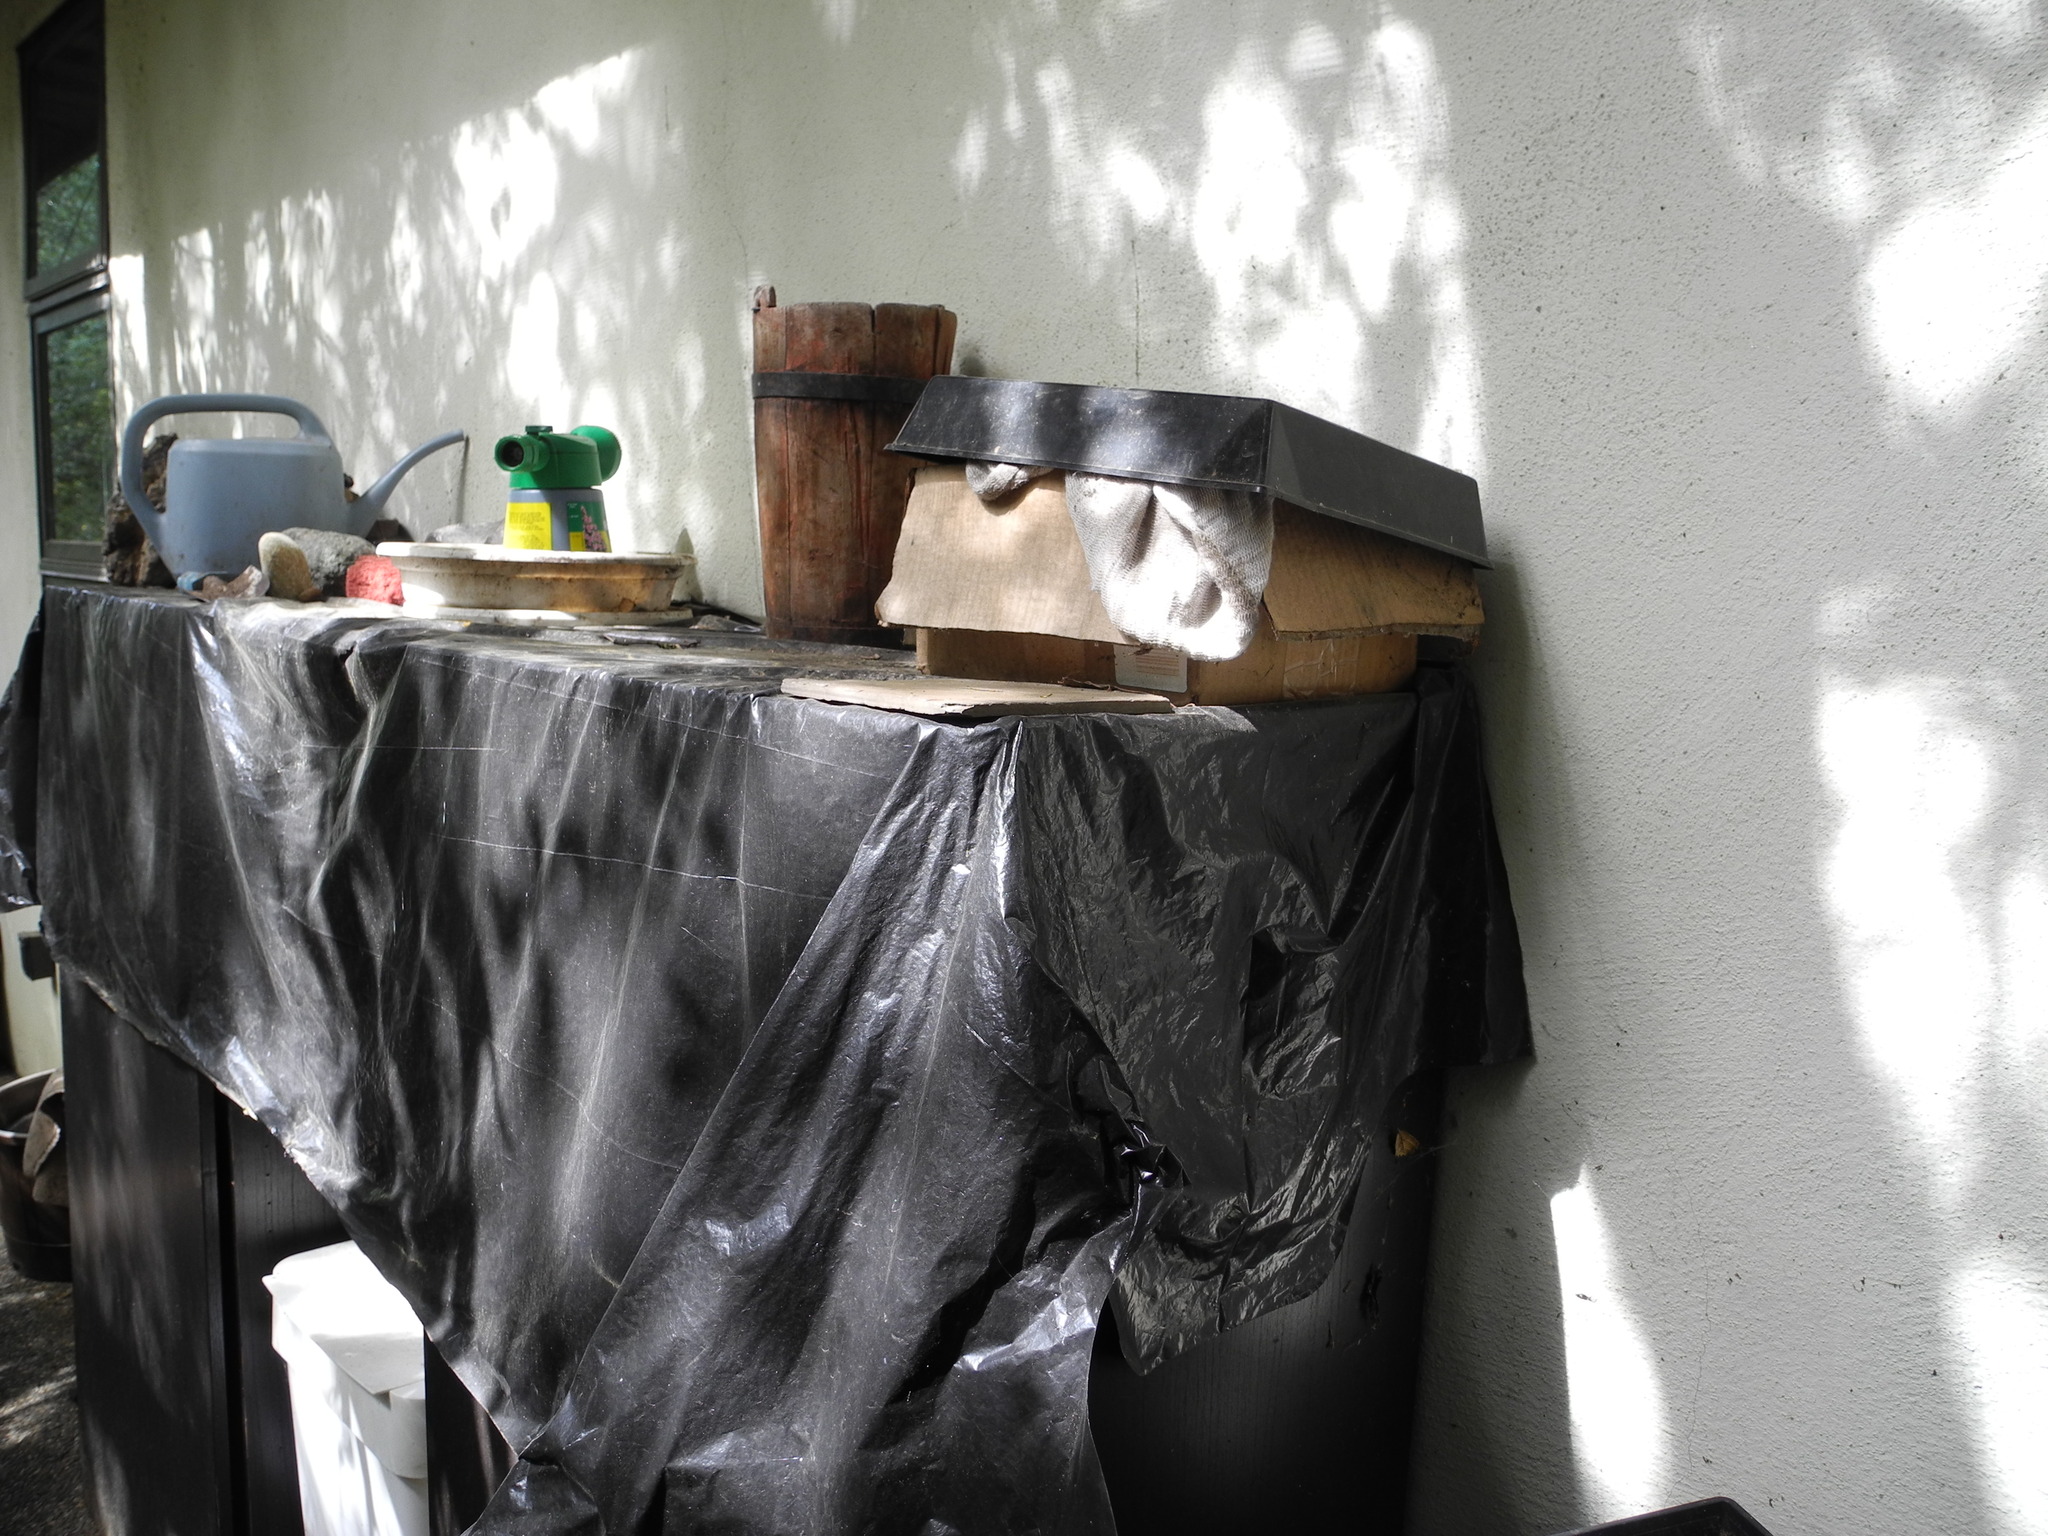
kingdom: Animalia
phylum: Chordata
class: Aves
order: Passeriformes
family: Troglodytidae
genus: Thryomanes
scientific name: Thryomanes bewickii
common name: Bewick's wren
